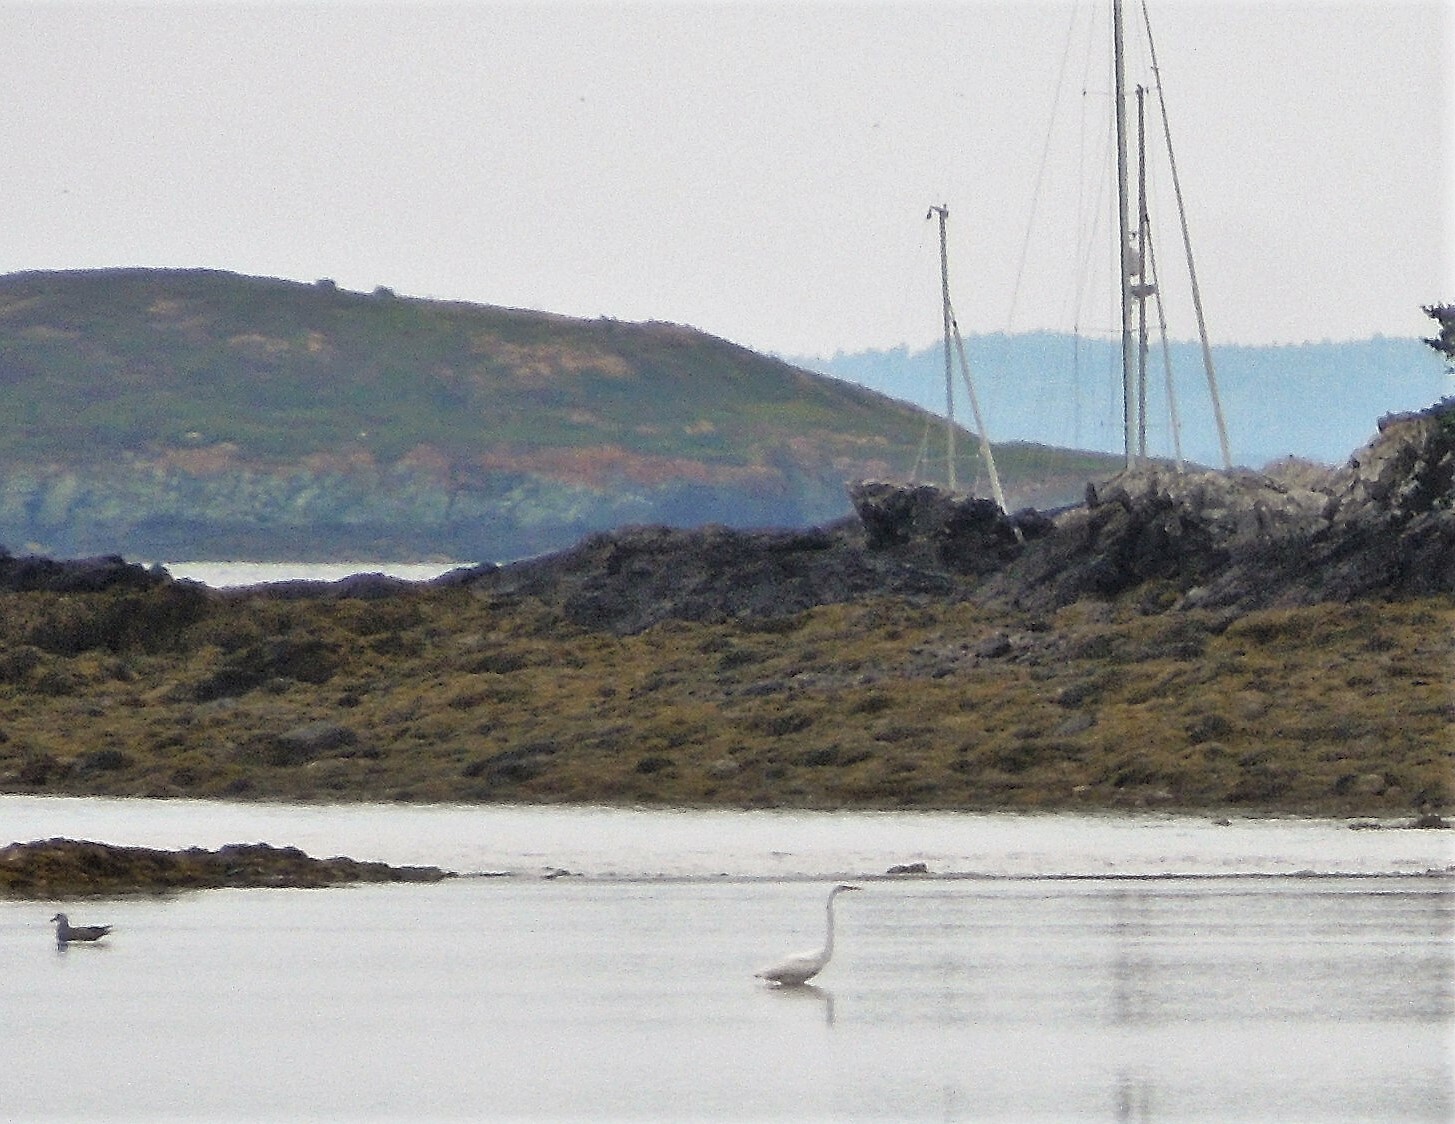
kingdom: Animalia
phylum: Chordata
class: Aves
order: Pelecaniformes
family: Ardeidae
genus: Ardea
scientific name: Ardea alba
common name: Great egret
